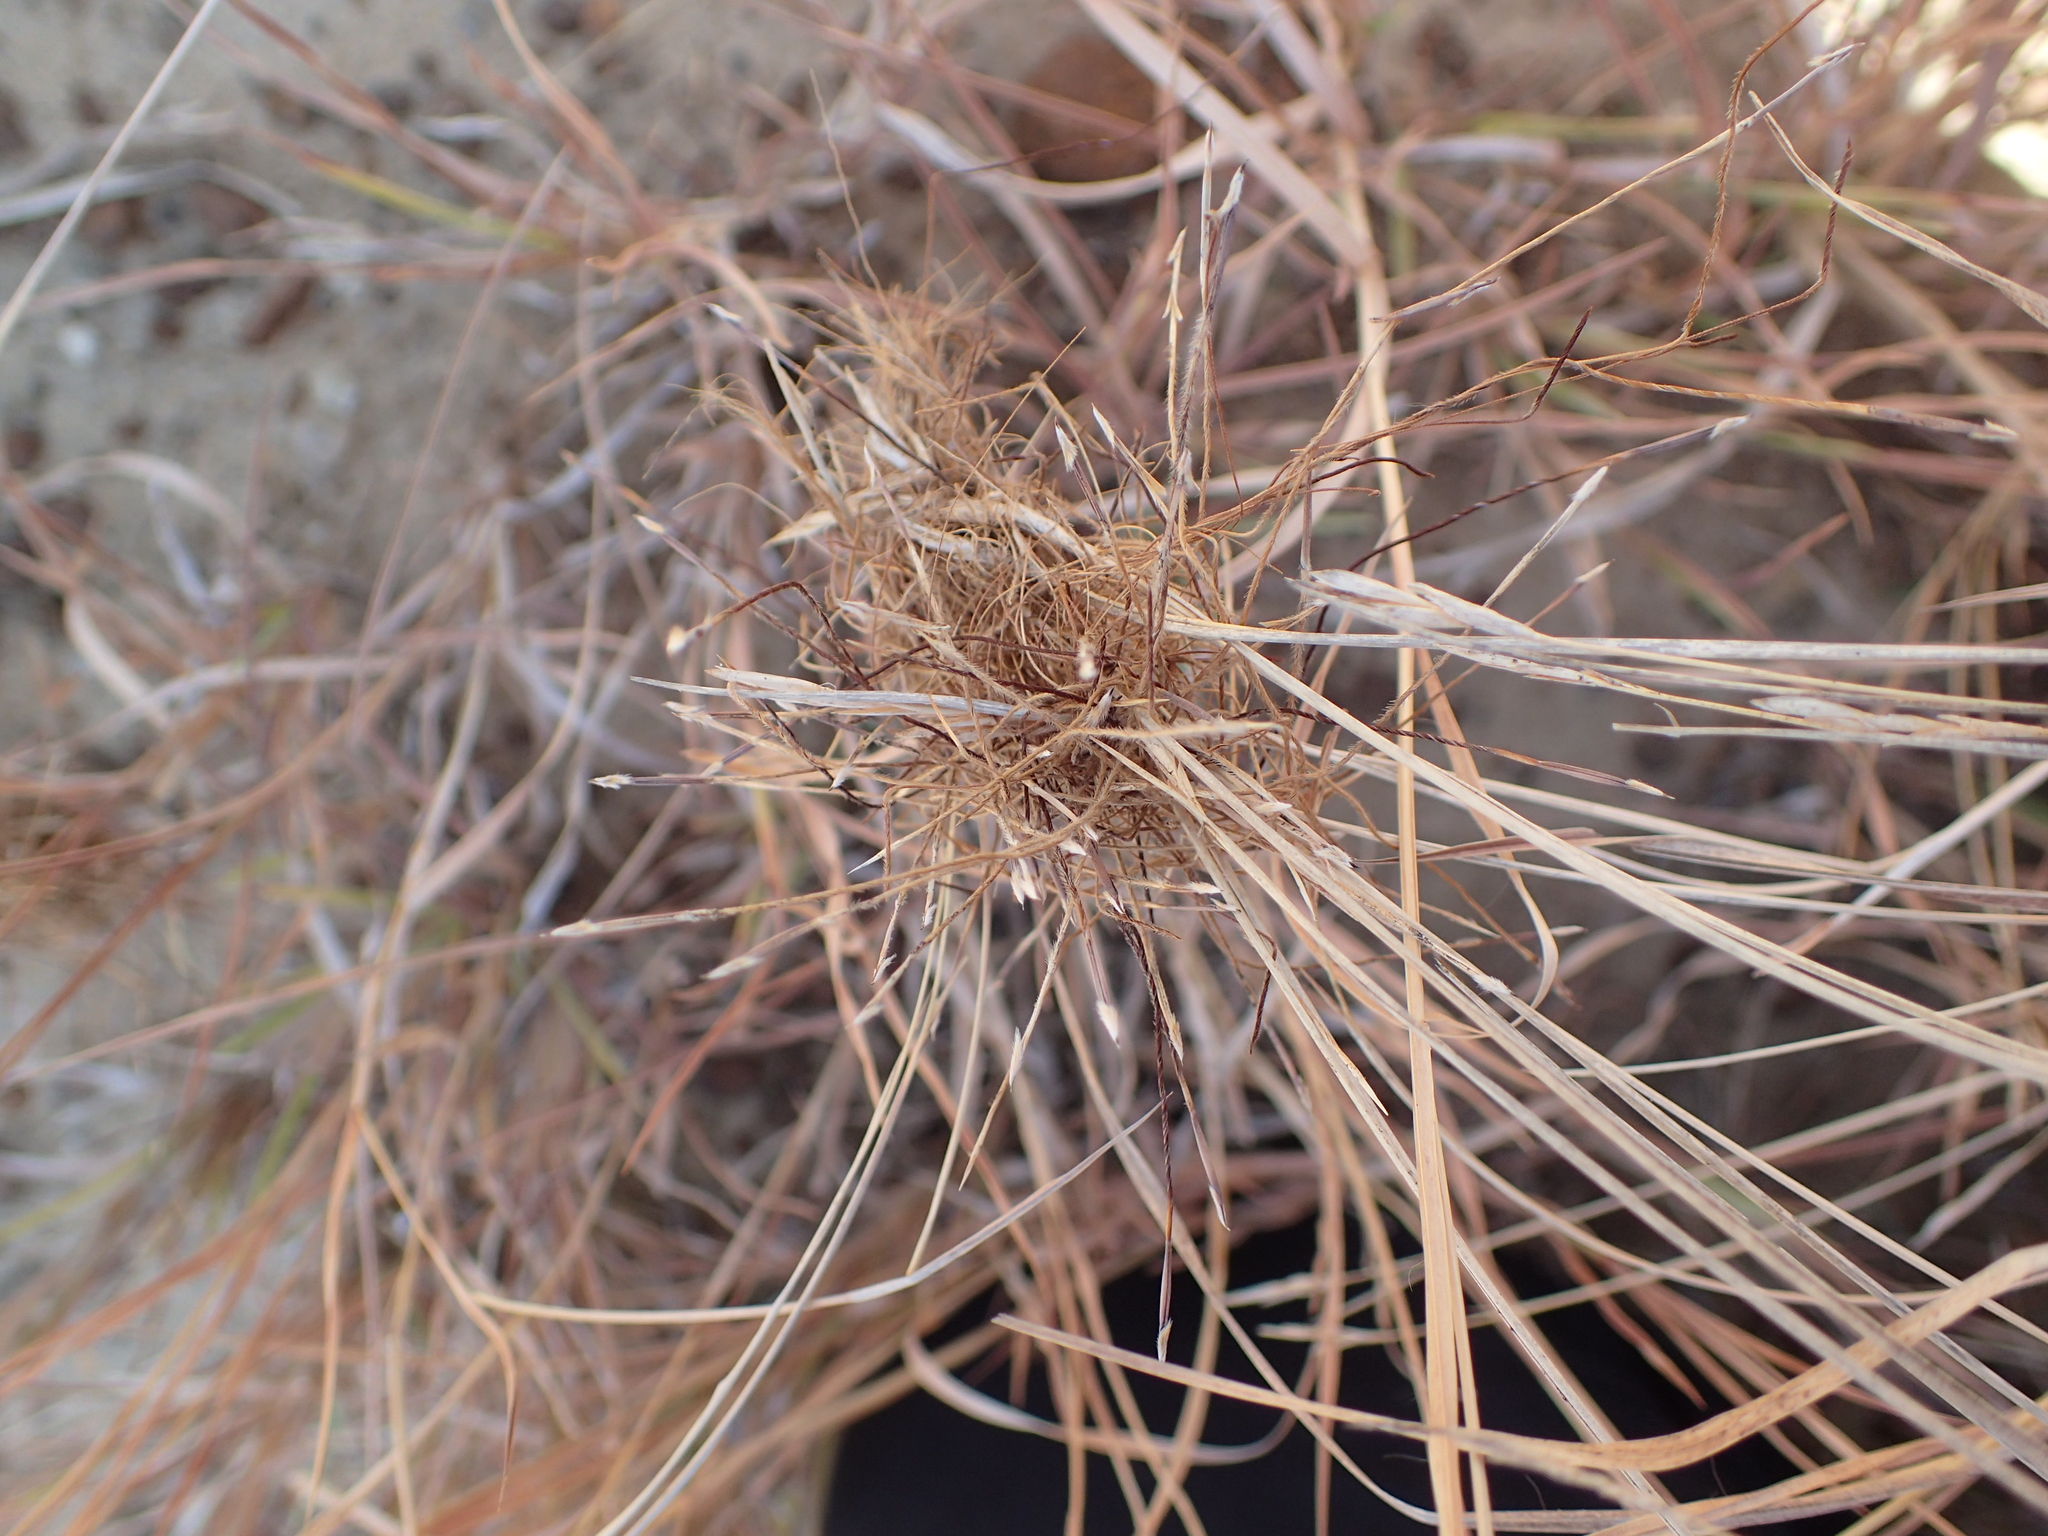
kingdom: Plantae
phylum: Tracheophyta
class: Liliopsida
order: Poales
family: Poaceae
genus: Heteropogon
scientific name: Heteropogon contortus
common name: Tanglehead
